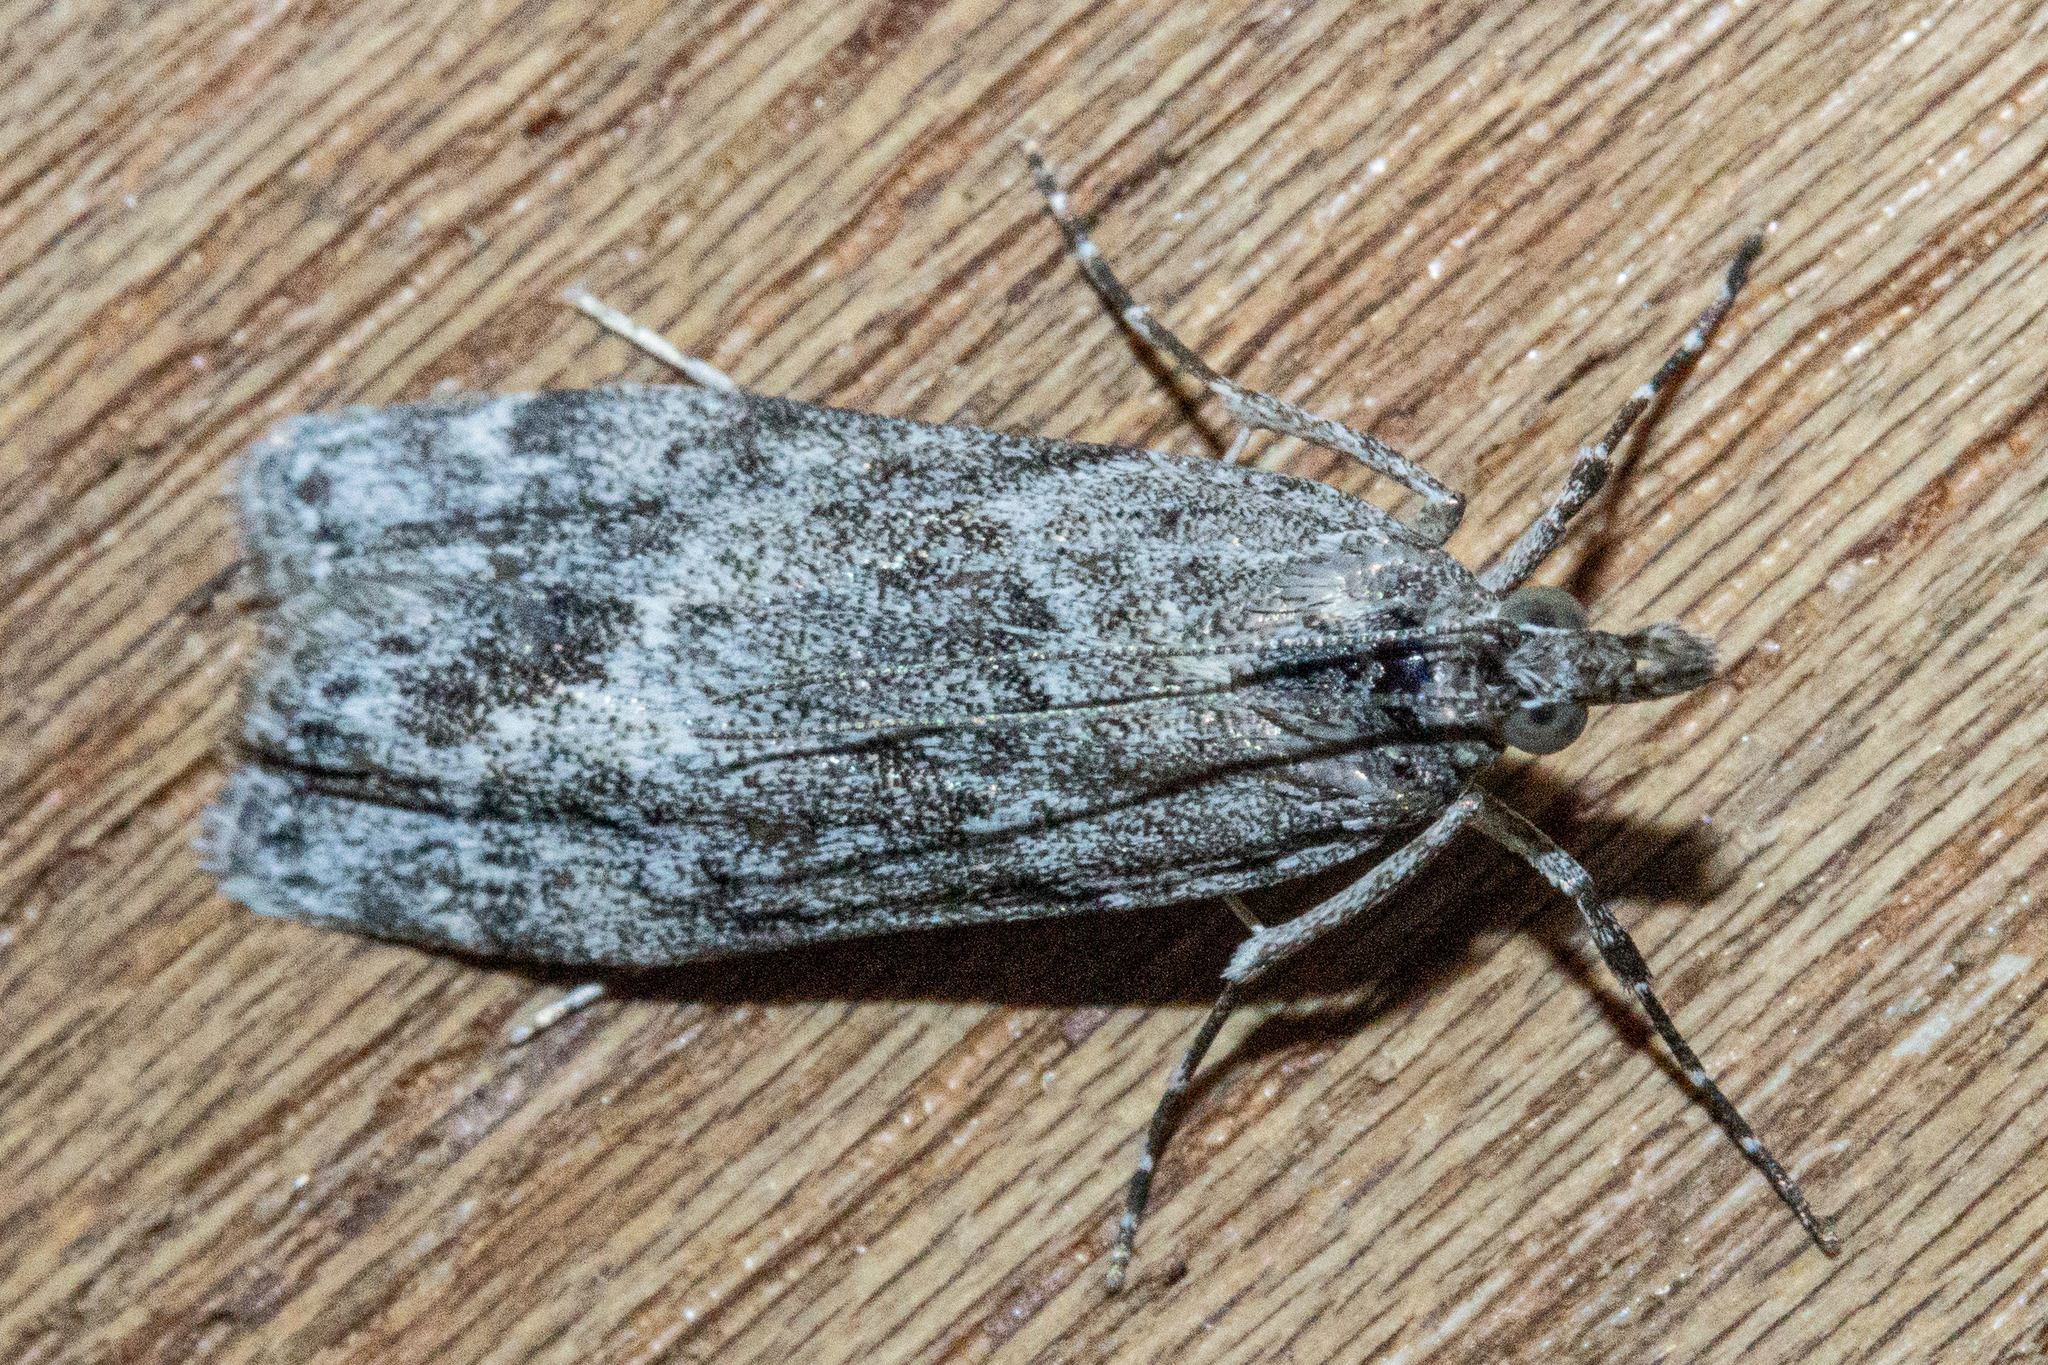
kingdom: Animalia
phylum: Arthropoda
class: Insecta
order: Lepidoptera
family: Crambidae
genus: Eudonia
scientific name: Eudonia rakaiensis
